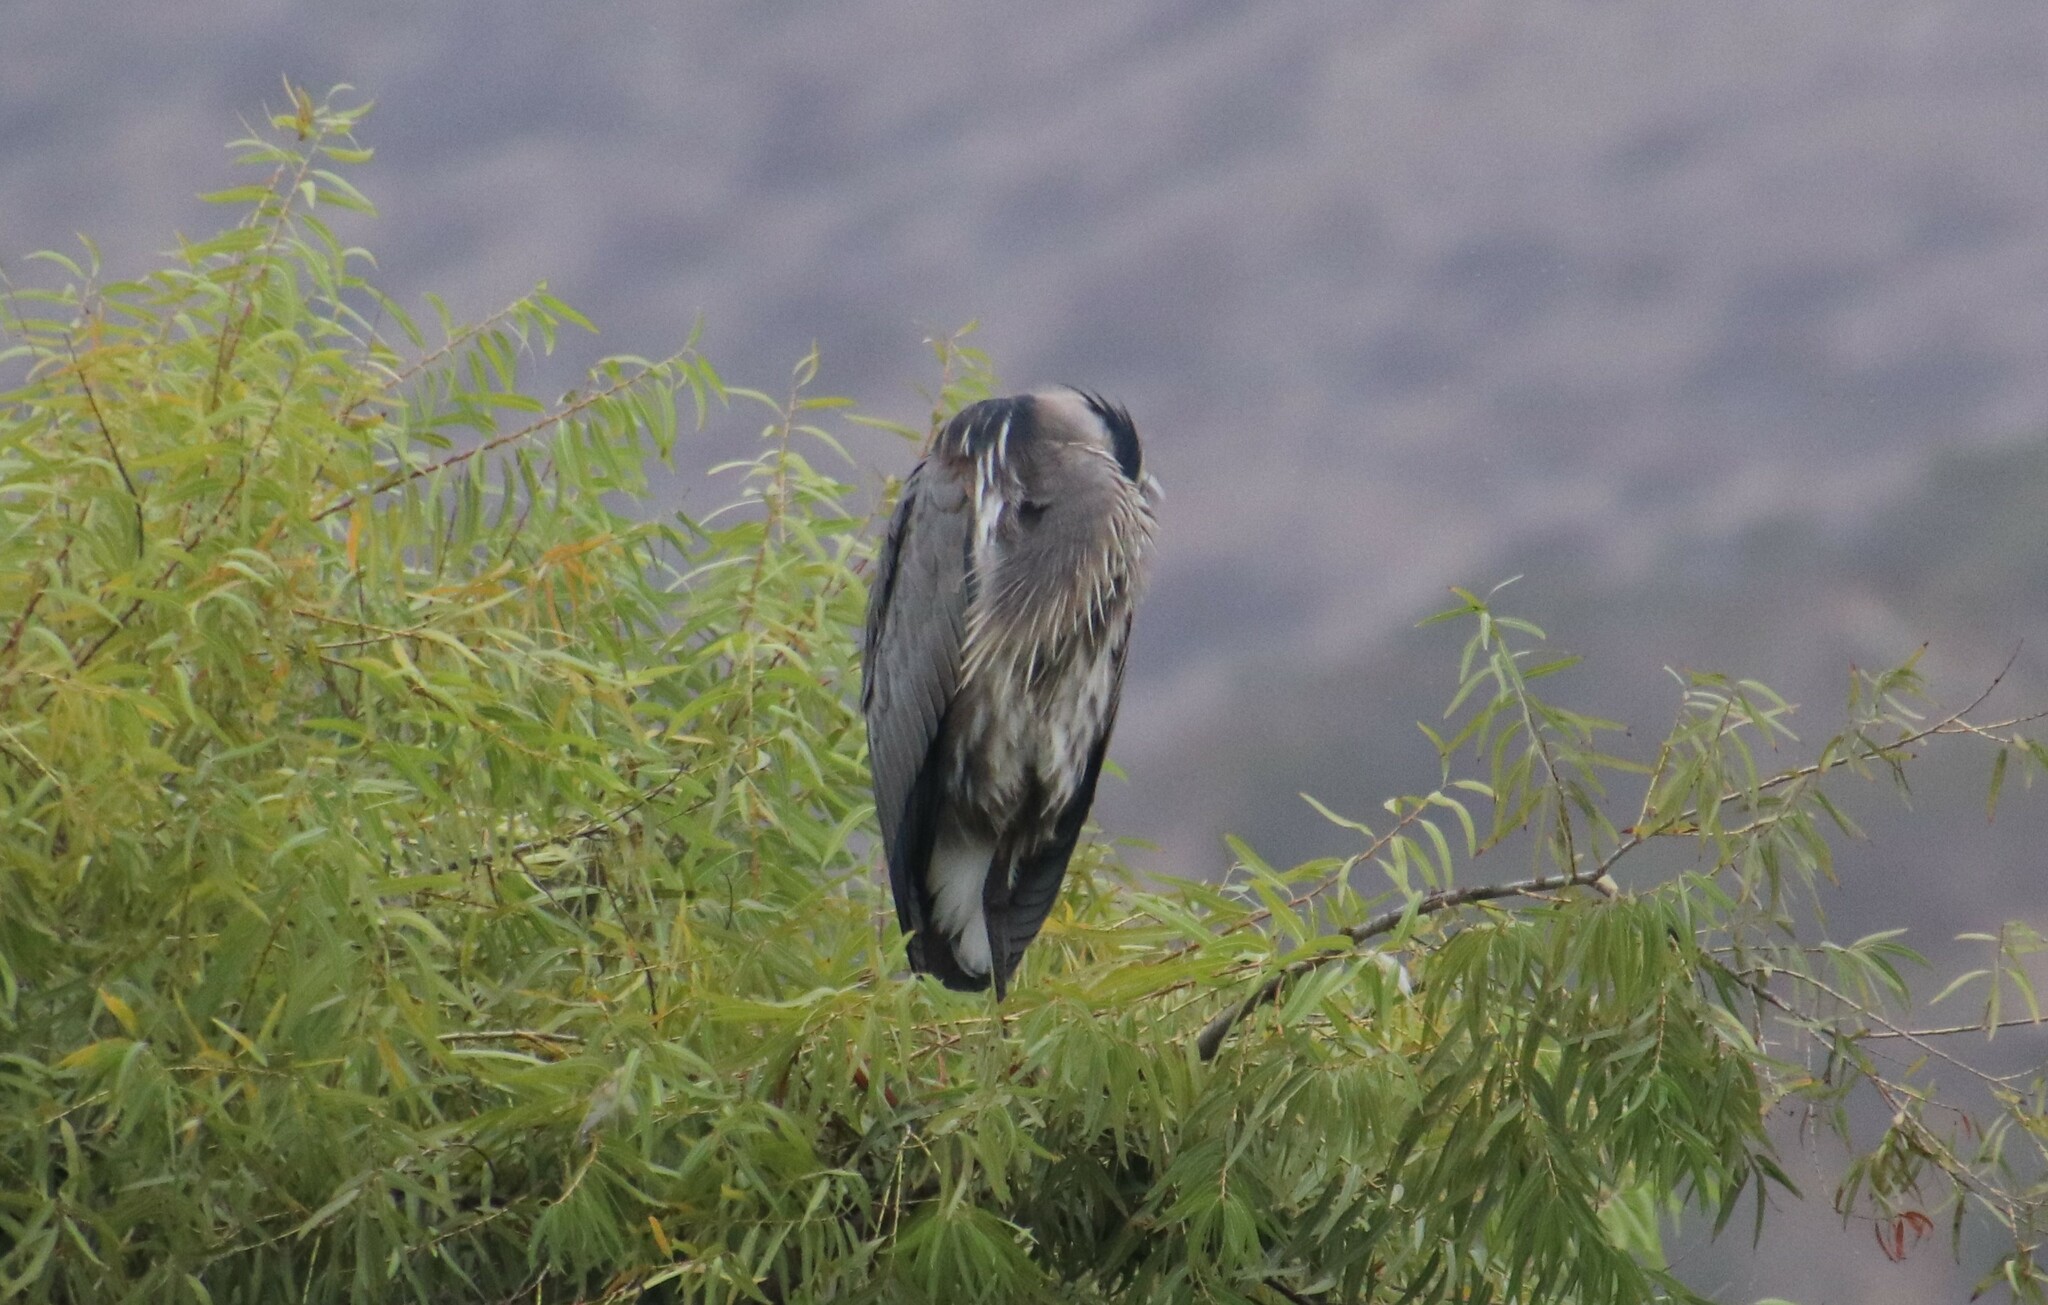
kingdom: Animalia
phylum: Chordata
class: Aves
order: Pelecaniformes
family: Ardeidae
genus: Ardea
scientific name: Ardea herodias
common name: Great blue heron
